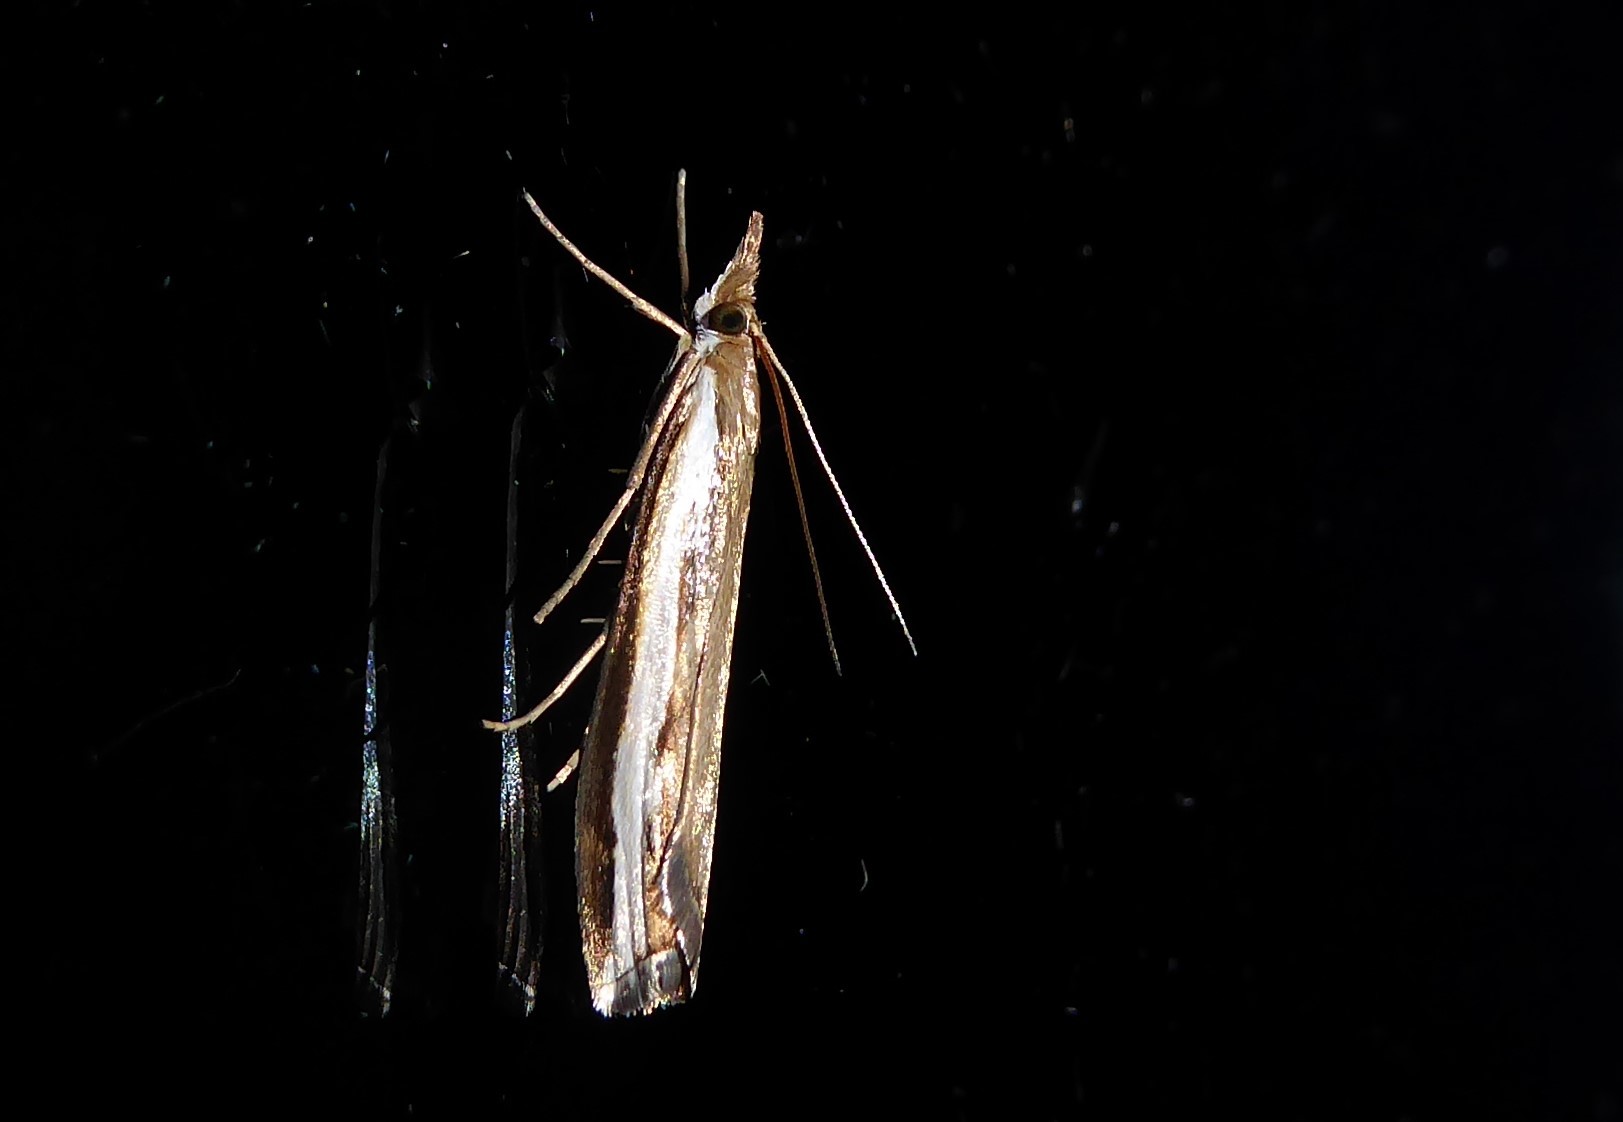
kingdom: Animalia
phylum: Arthropoda
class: Insecta
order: Lepidoptera
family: Crambidae
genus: Orocrambus
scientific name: Orocrambus flexuosellus
